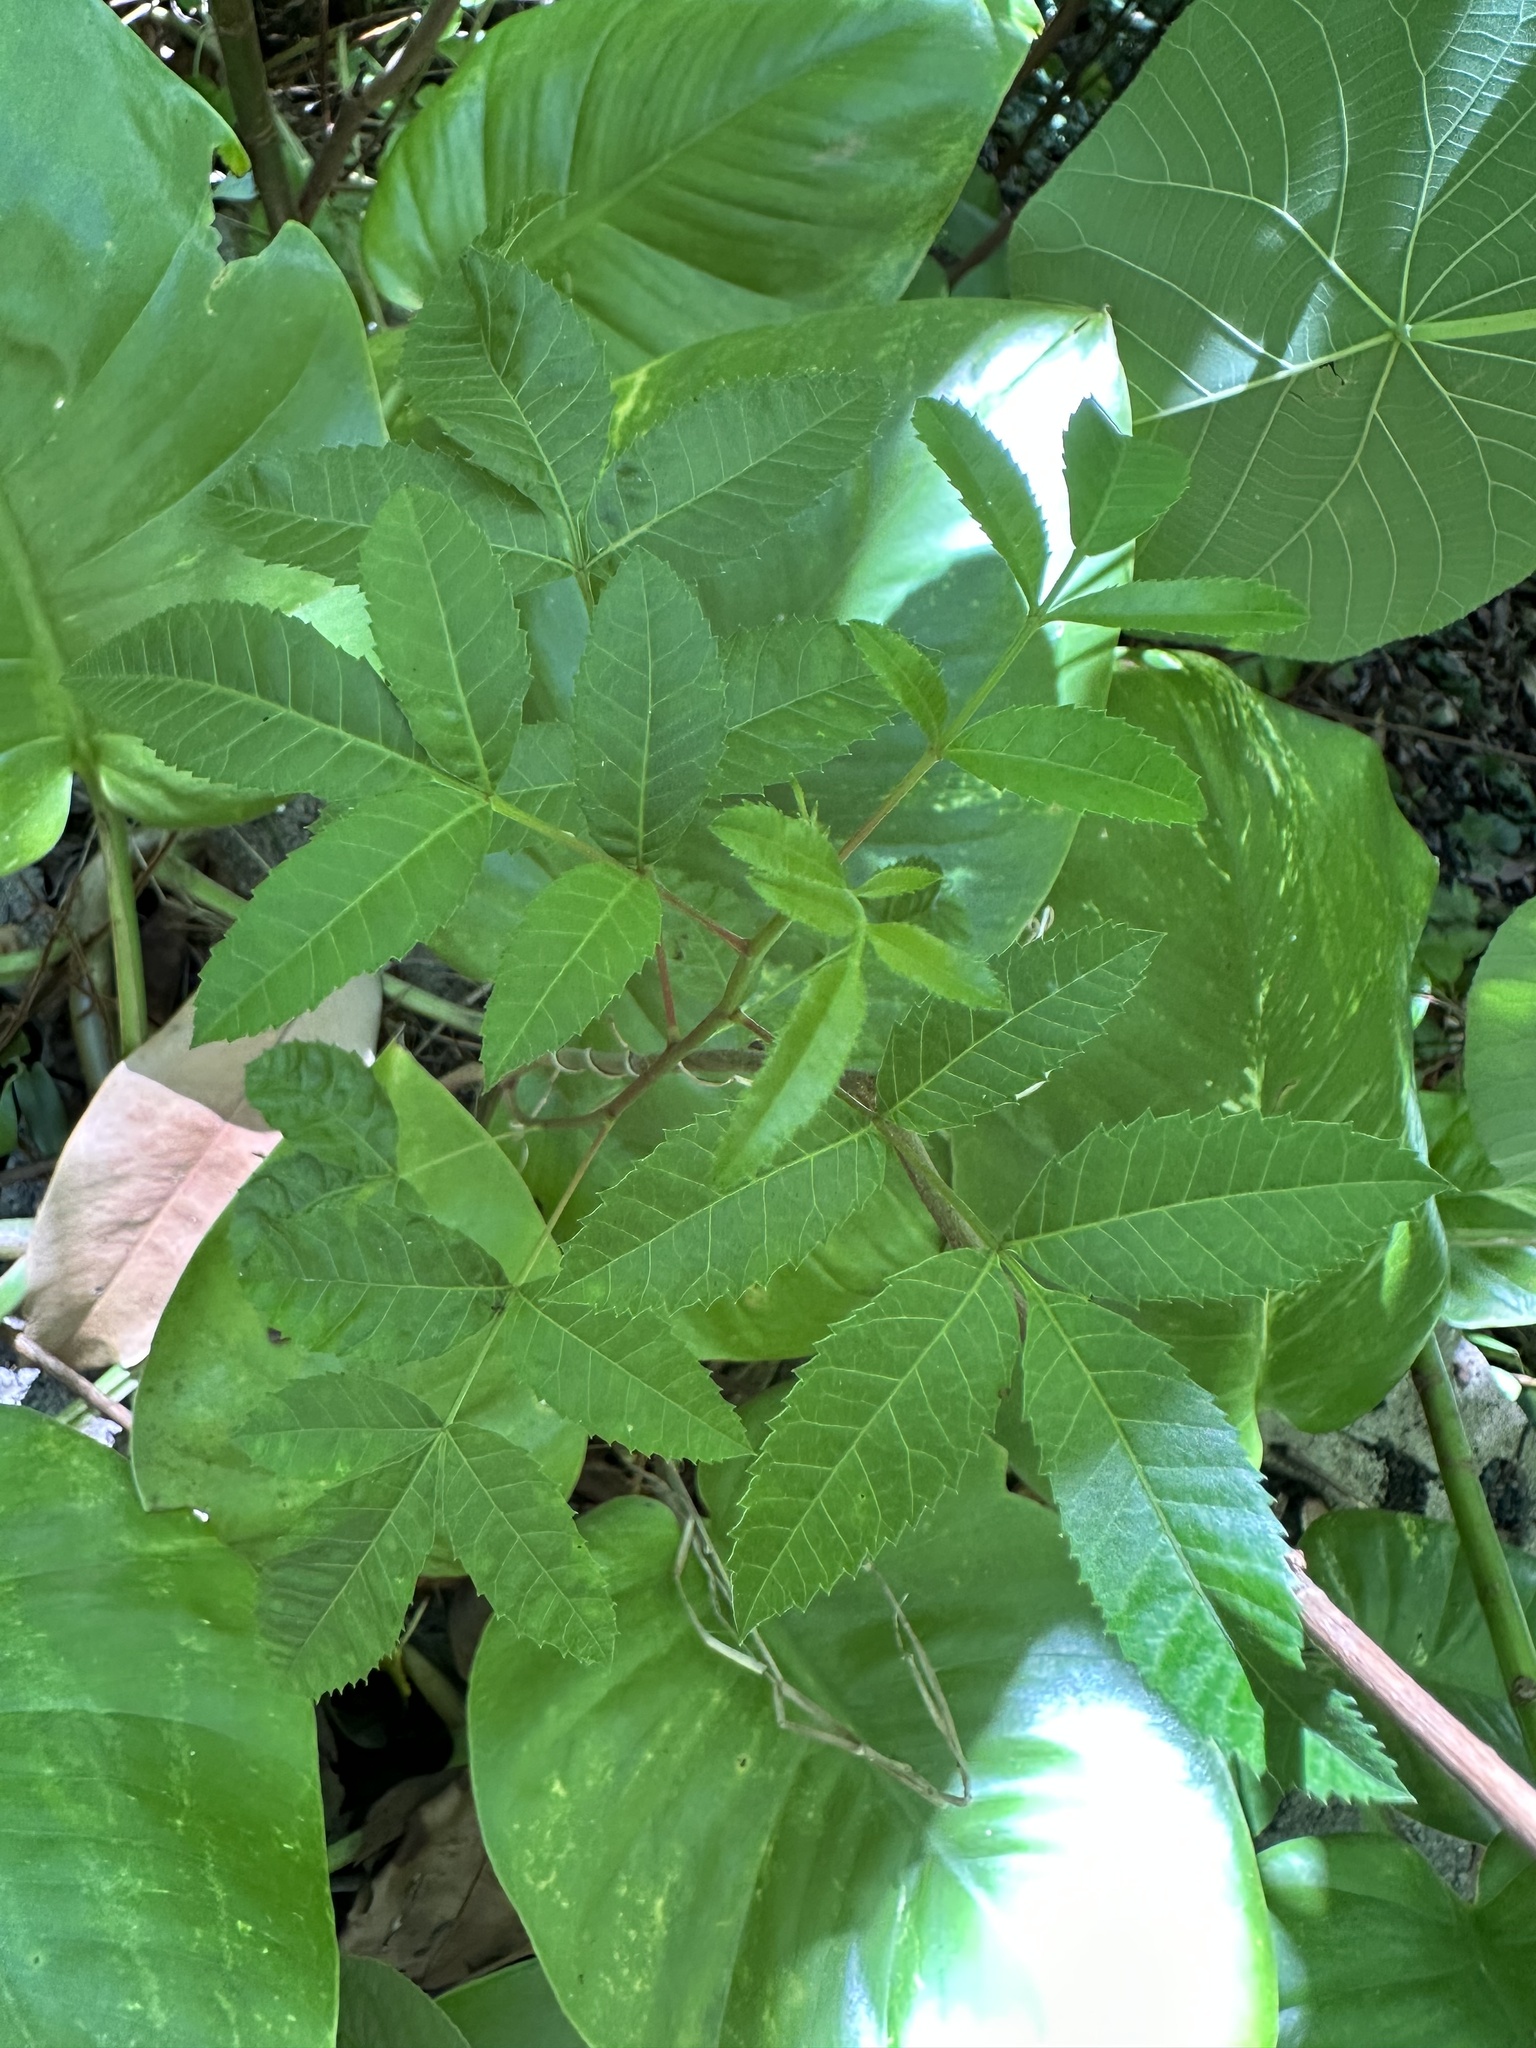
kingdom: Plantae
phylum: Tracheophyta
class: Magnoliopsida
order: Sapindales
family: Anacardiaceae
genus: Schinus
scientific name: Schinus terebinthifolia
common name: Brazilian peppertree
